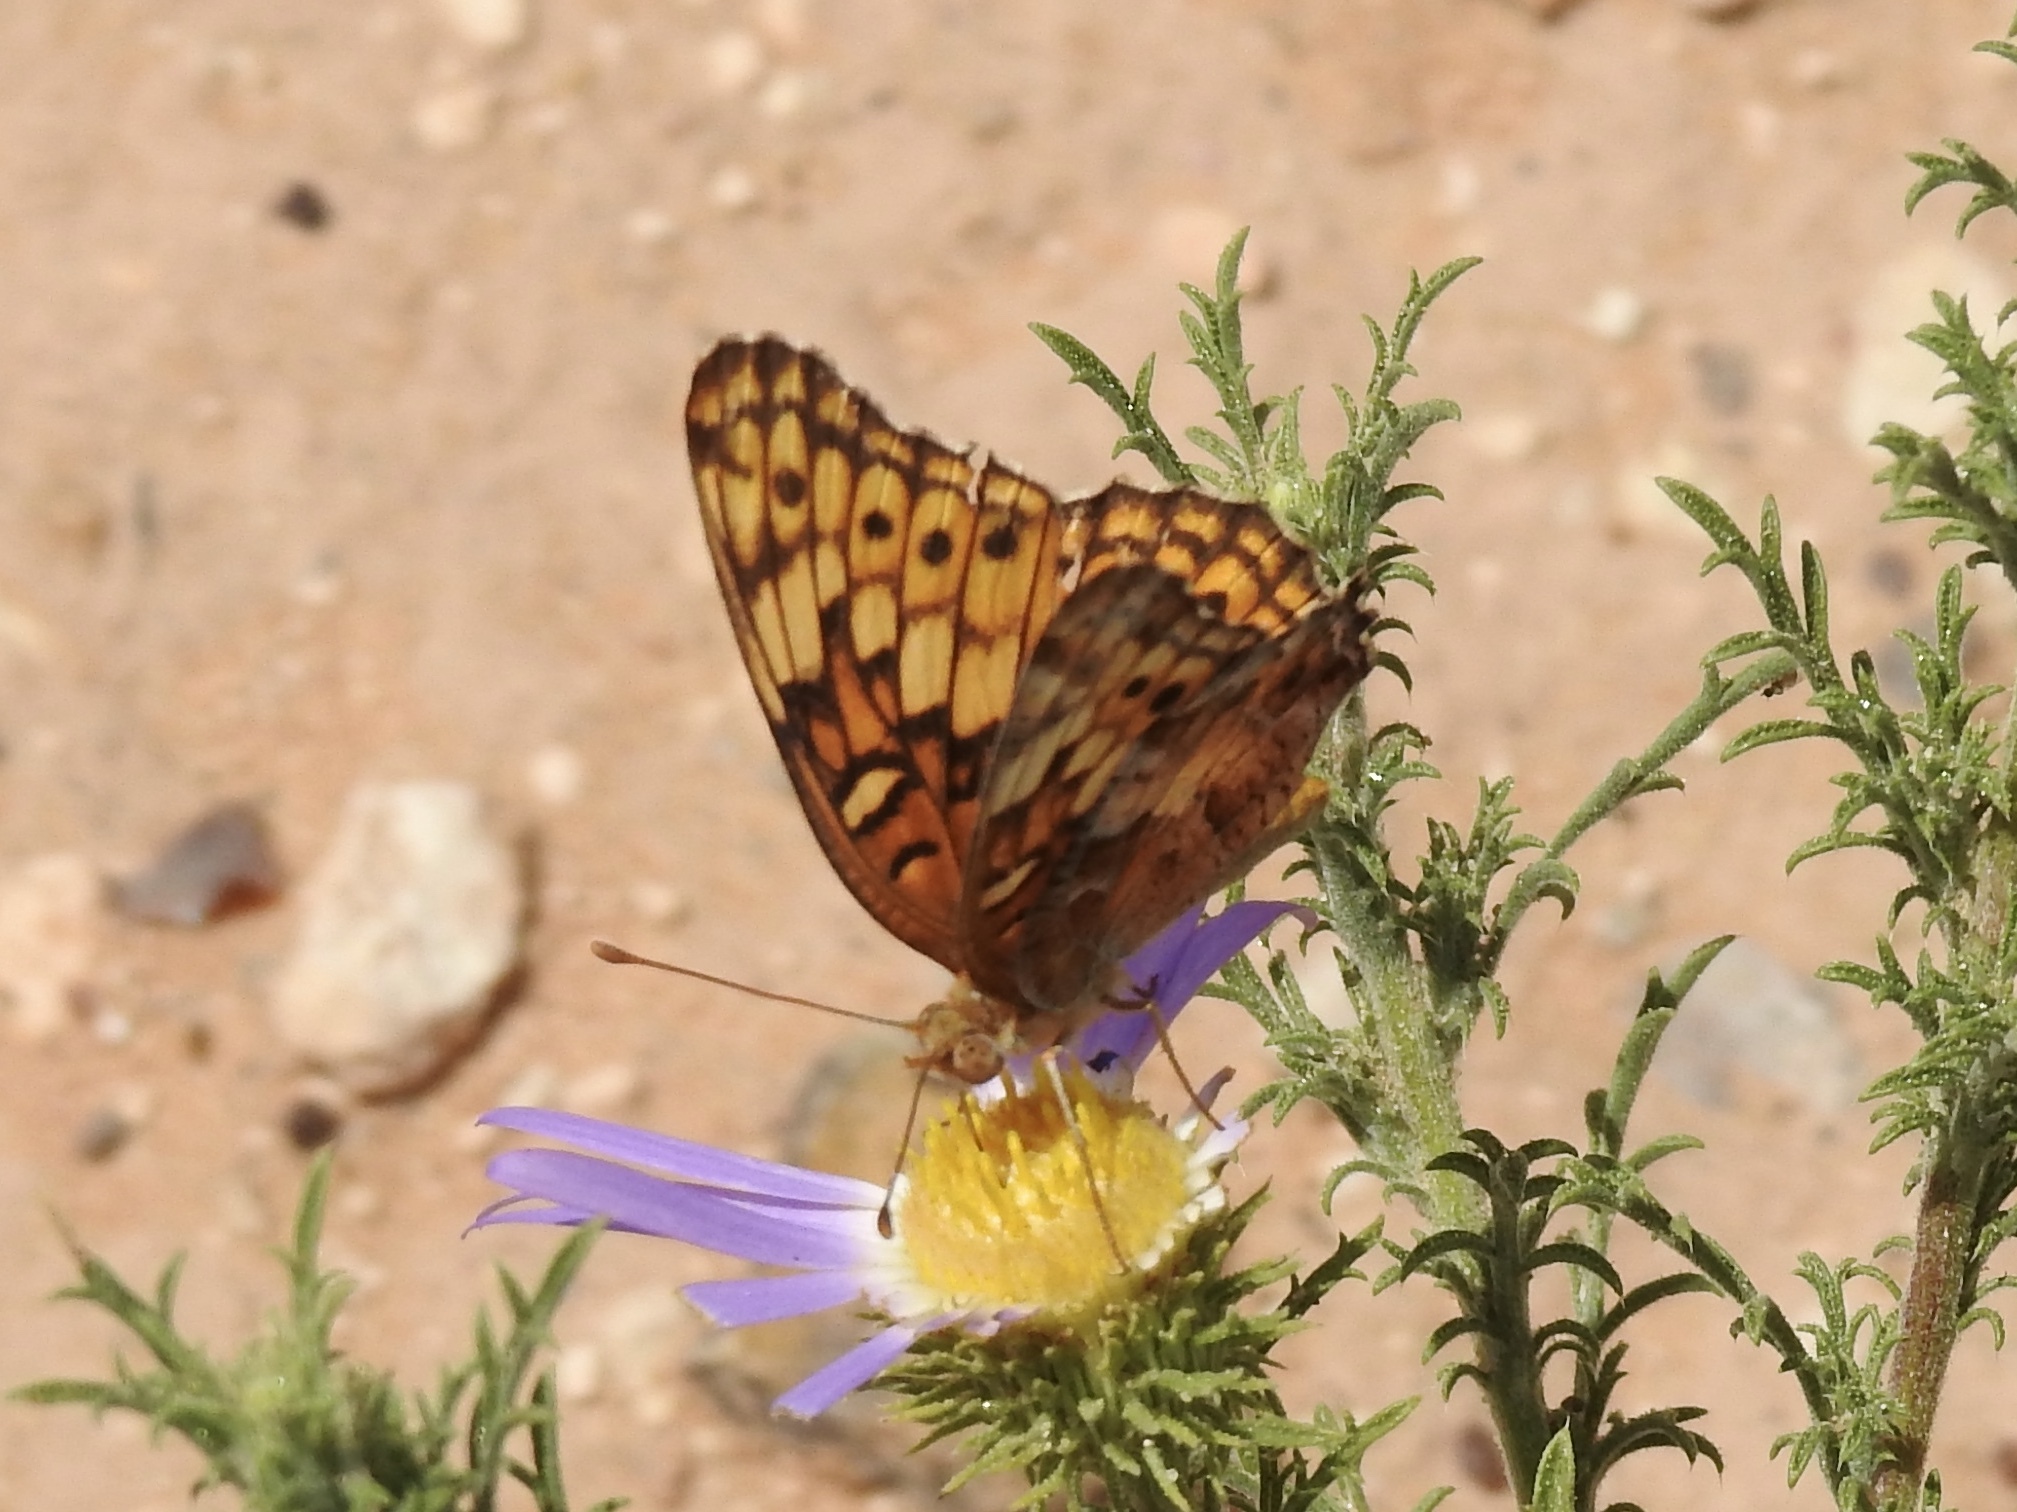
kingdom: Animalia
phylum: Arthropoda
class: Insecta
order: Lepidoptera
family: Nymphalidae
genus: Euptoieta
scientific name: Euptoieta claudia
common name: Variegated fritillary
